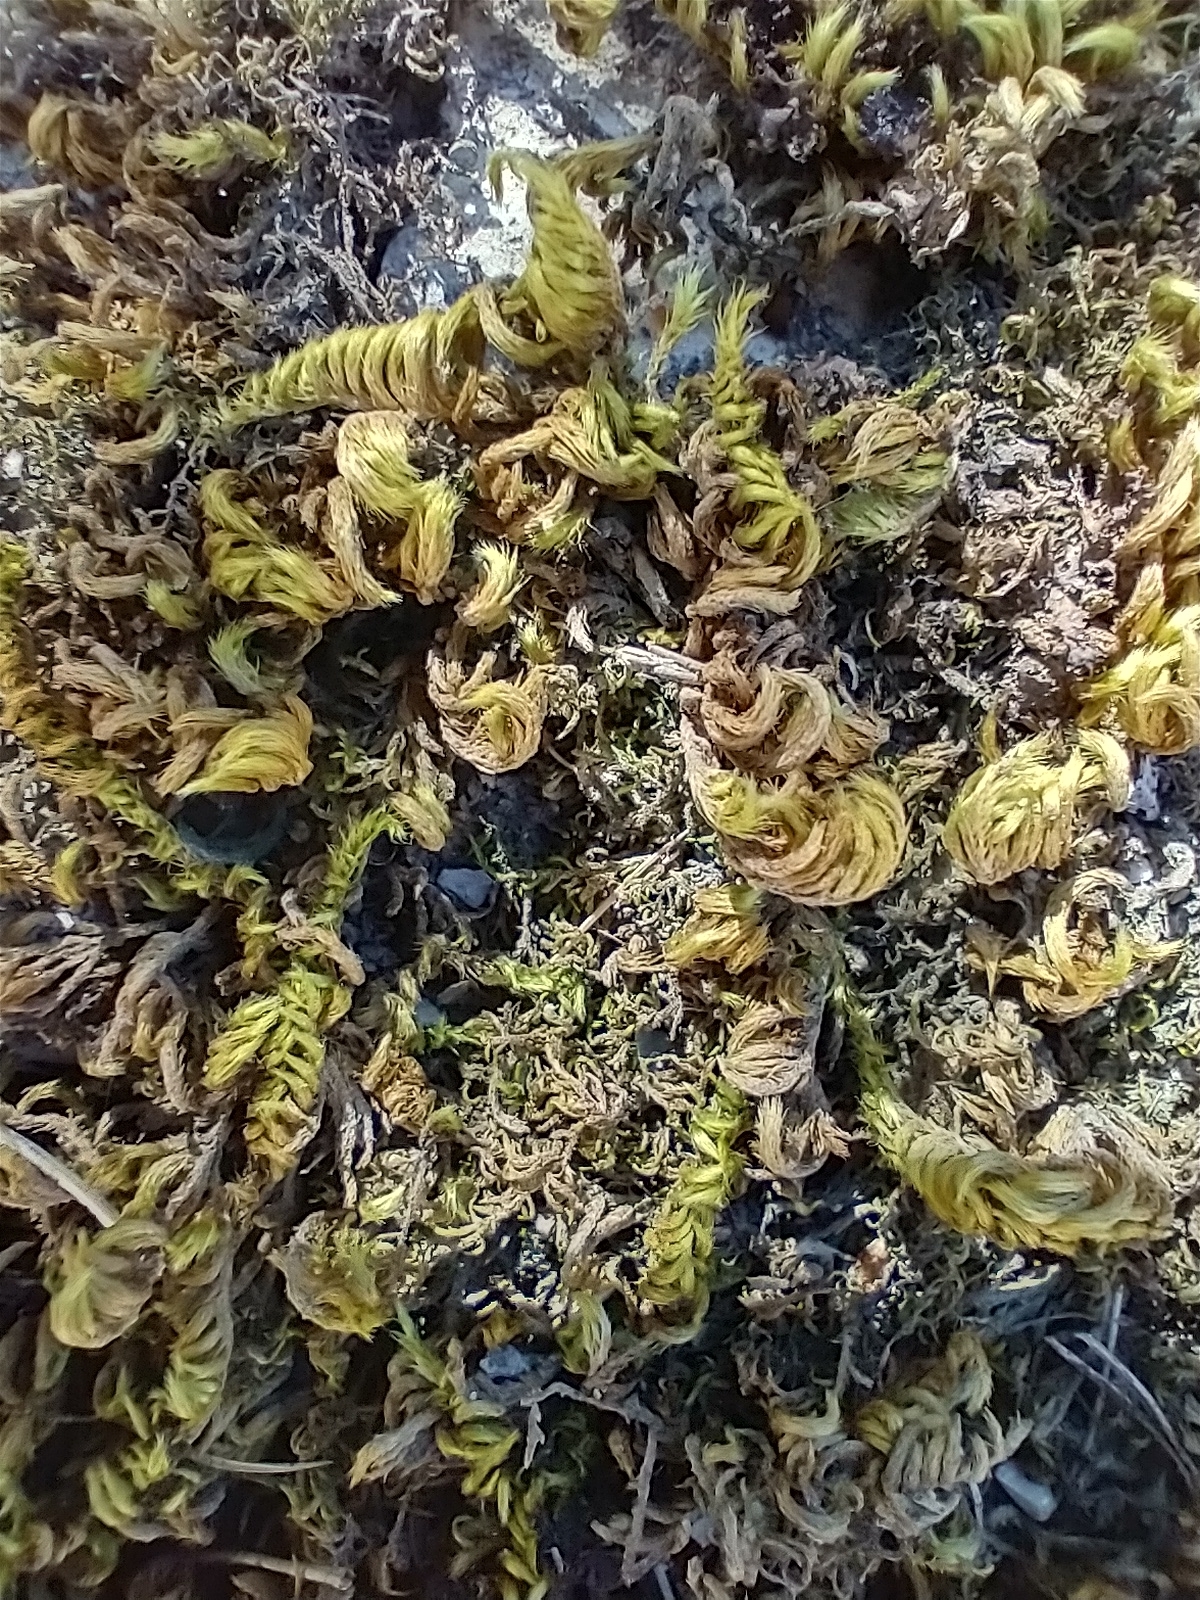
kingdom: Plantae
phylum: Bryophyta
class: Bryopsida
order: Hypnales
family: Brachytheciaceae
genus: Homalothecium
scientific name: Homalothecium sericeum
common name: Silky wall feather-moss
